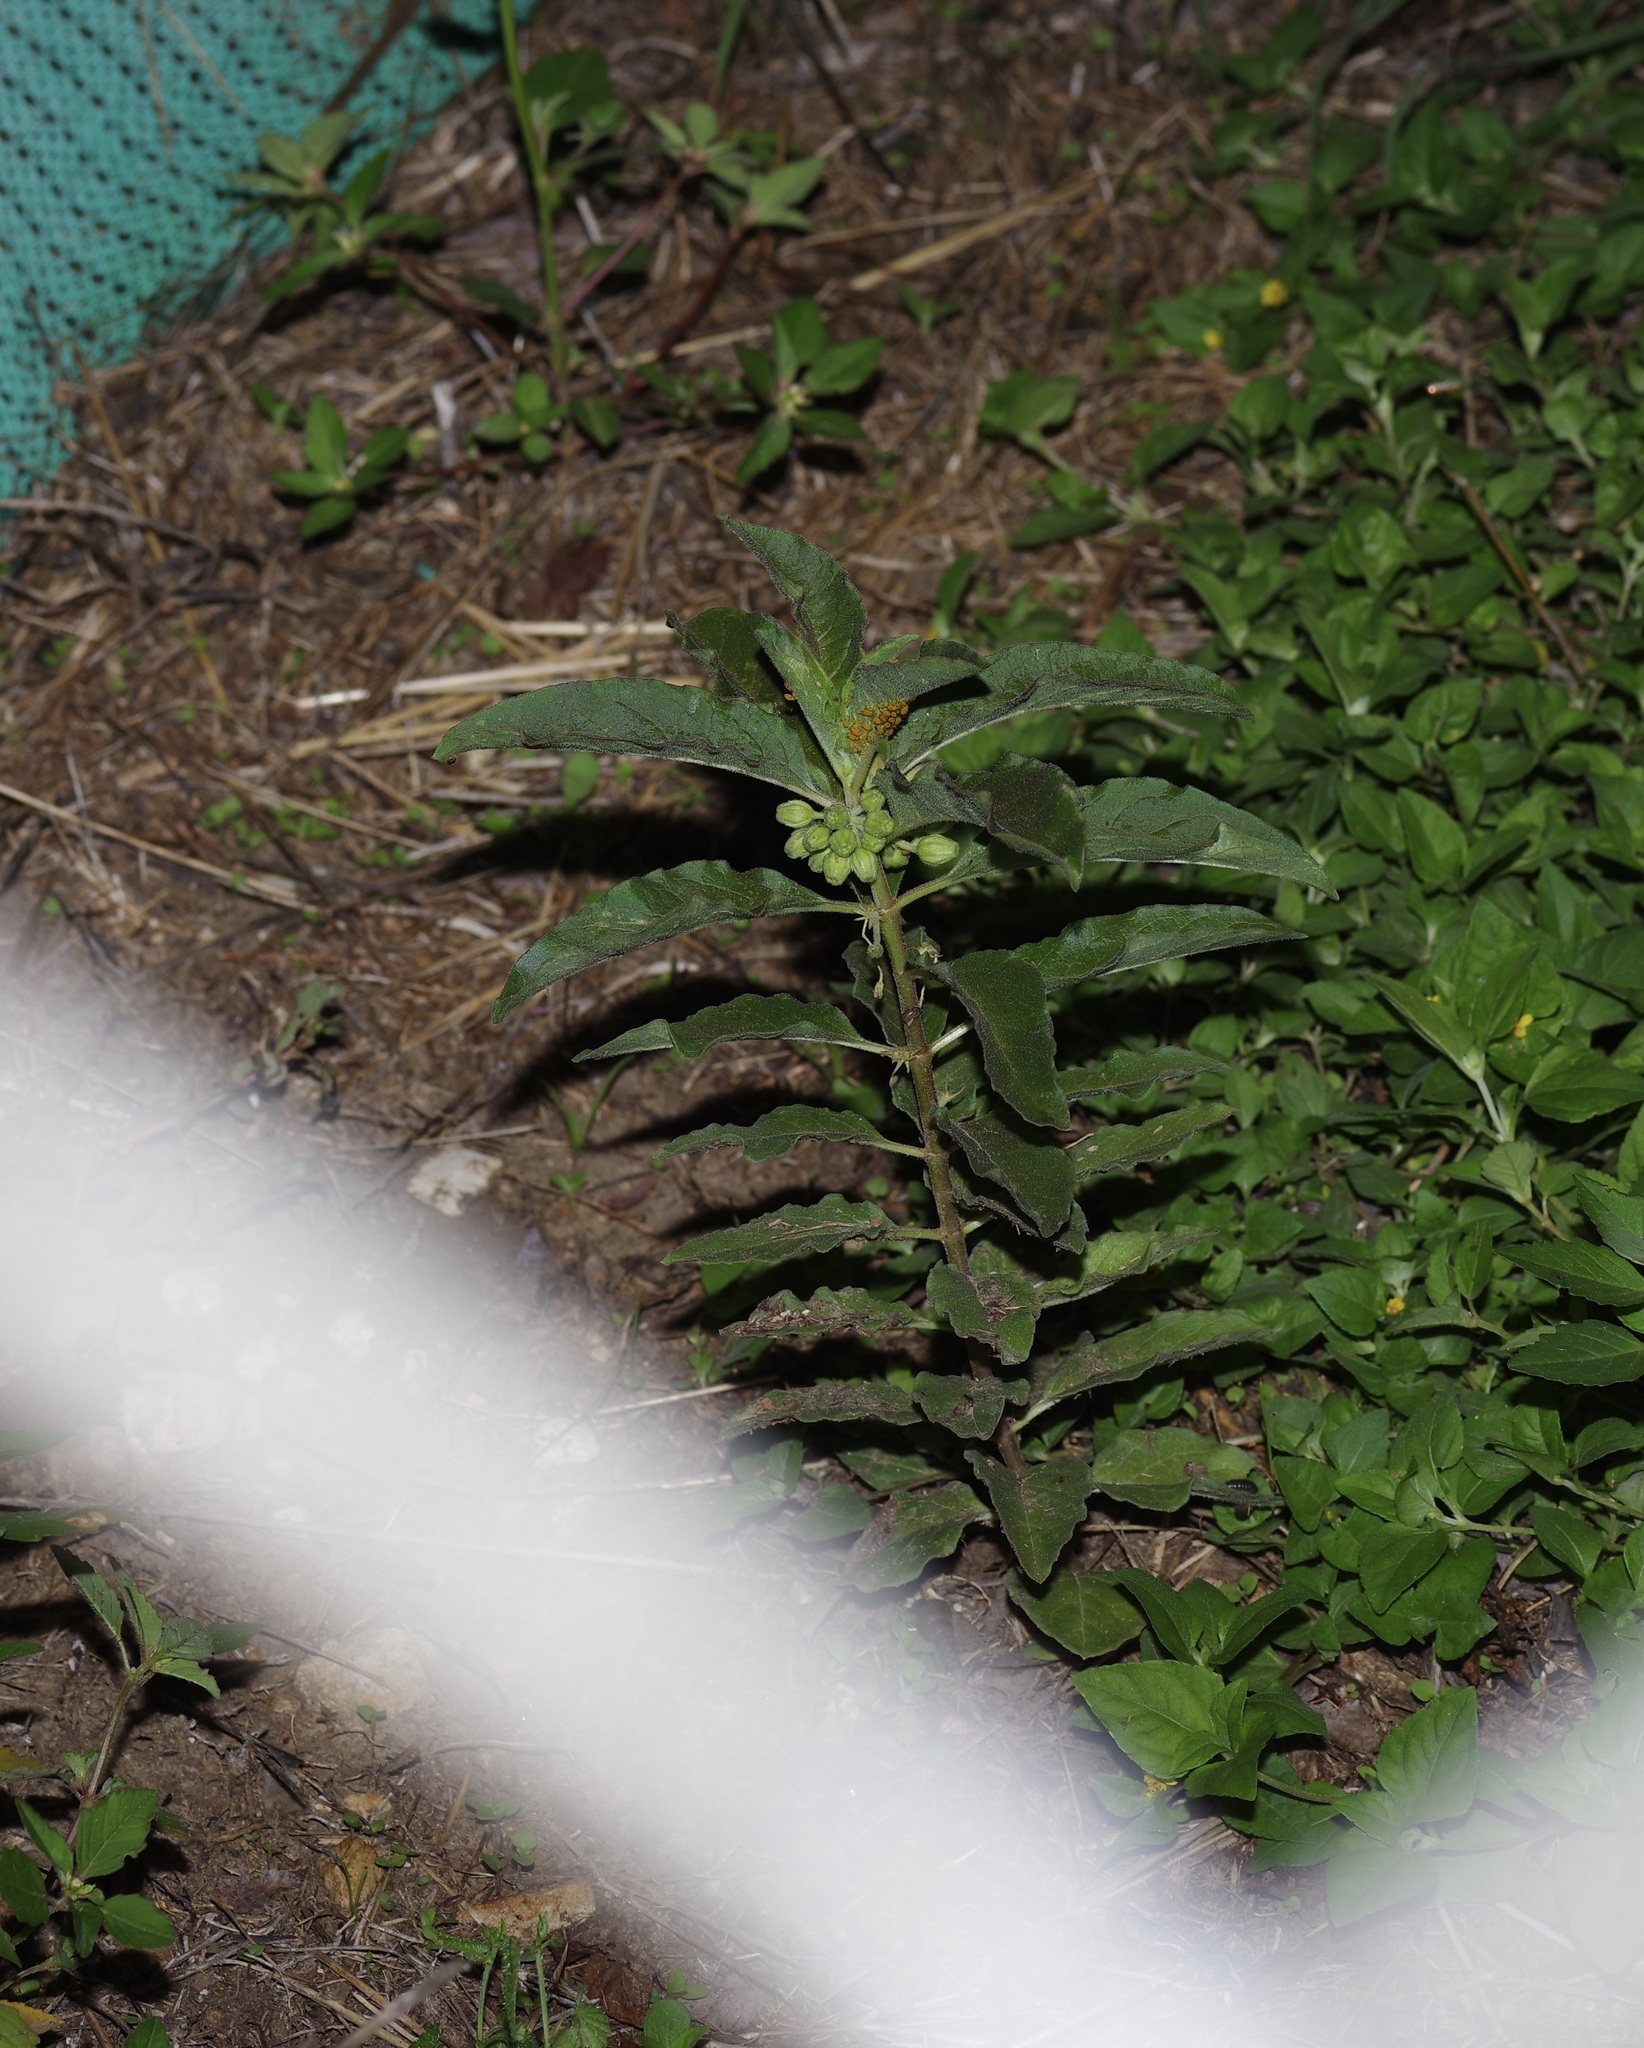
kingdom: Plantae
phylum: Tracheophyta
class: Magnoliopsida
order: Gentianales
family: Apocynaceae
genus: Asclepias
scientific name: Asclepias oenotheroides
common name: Zizotes milkweed
